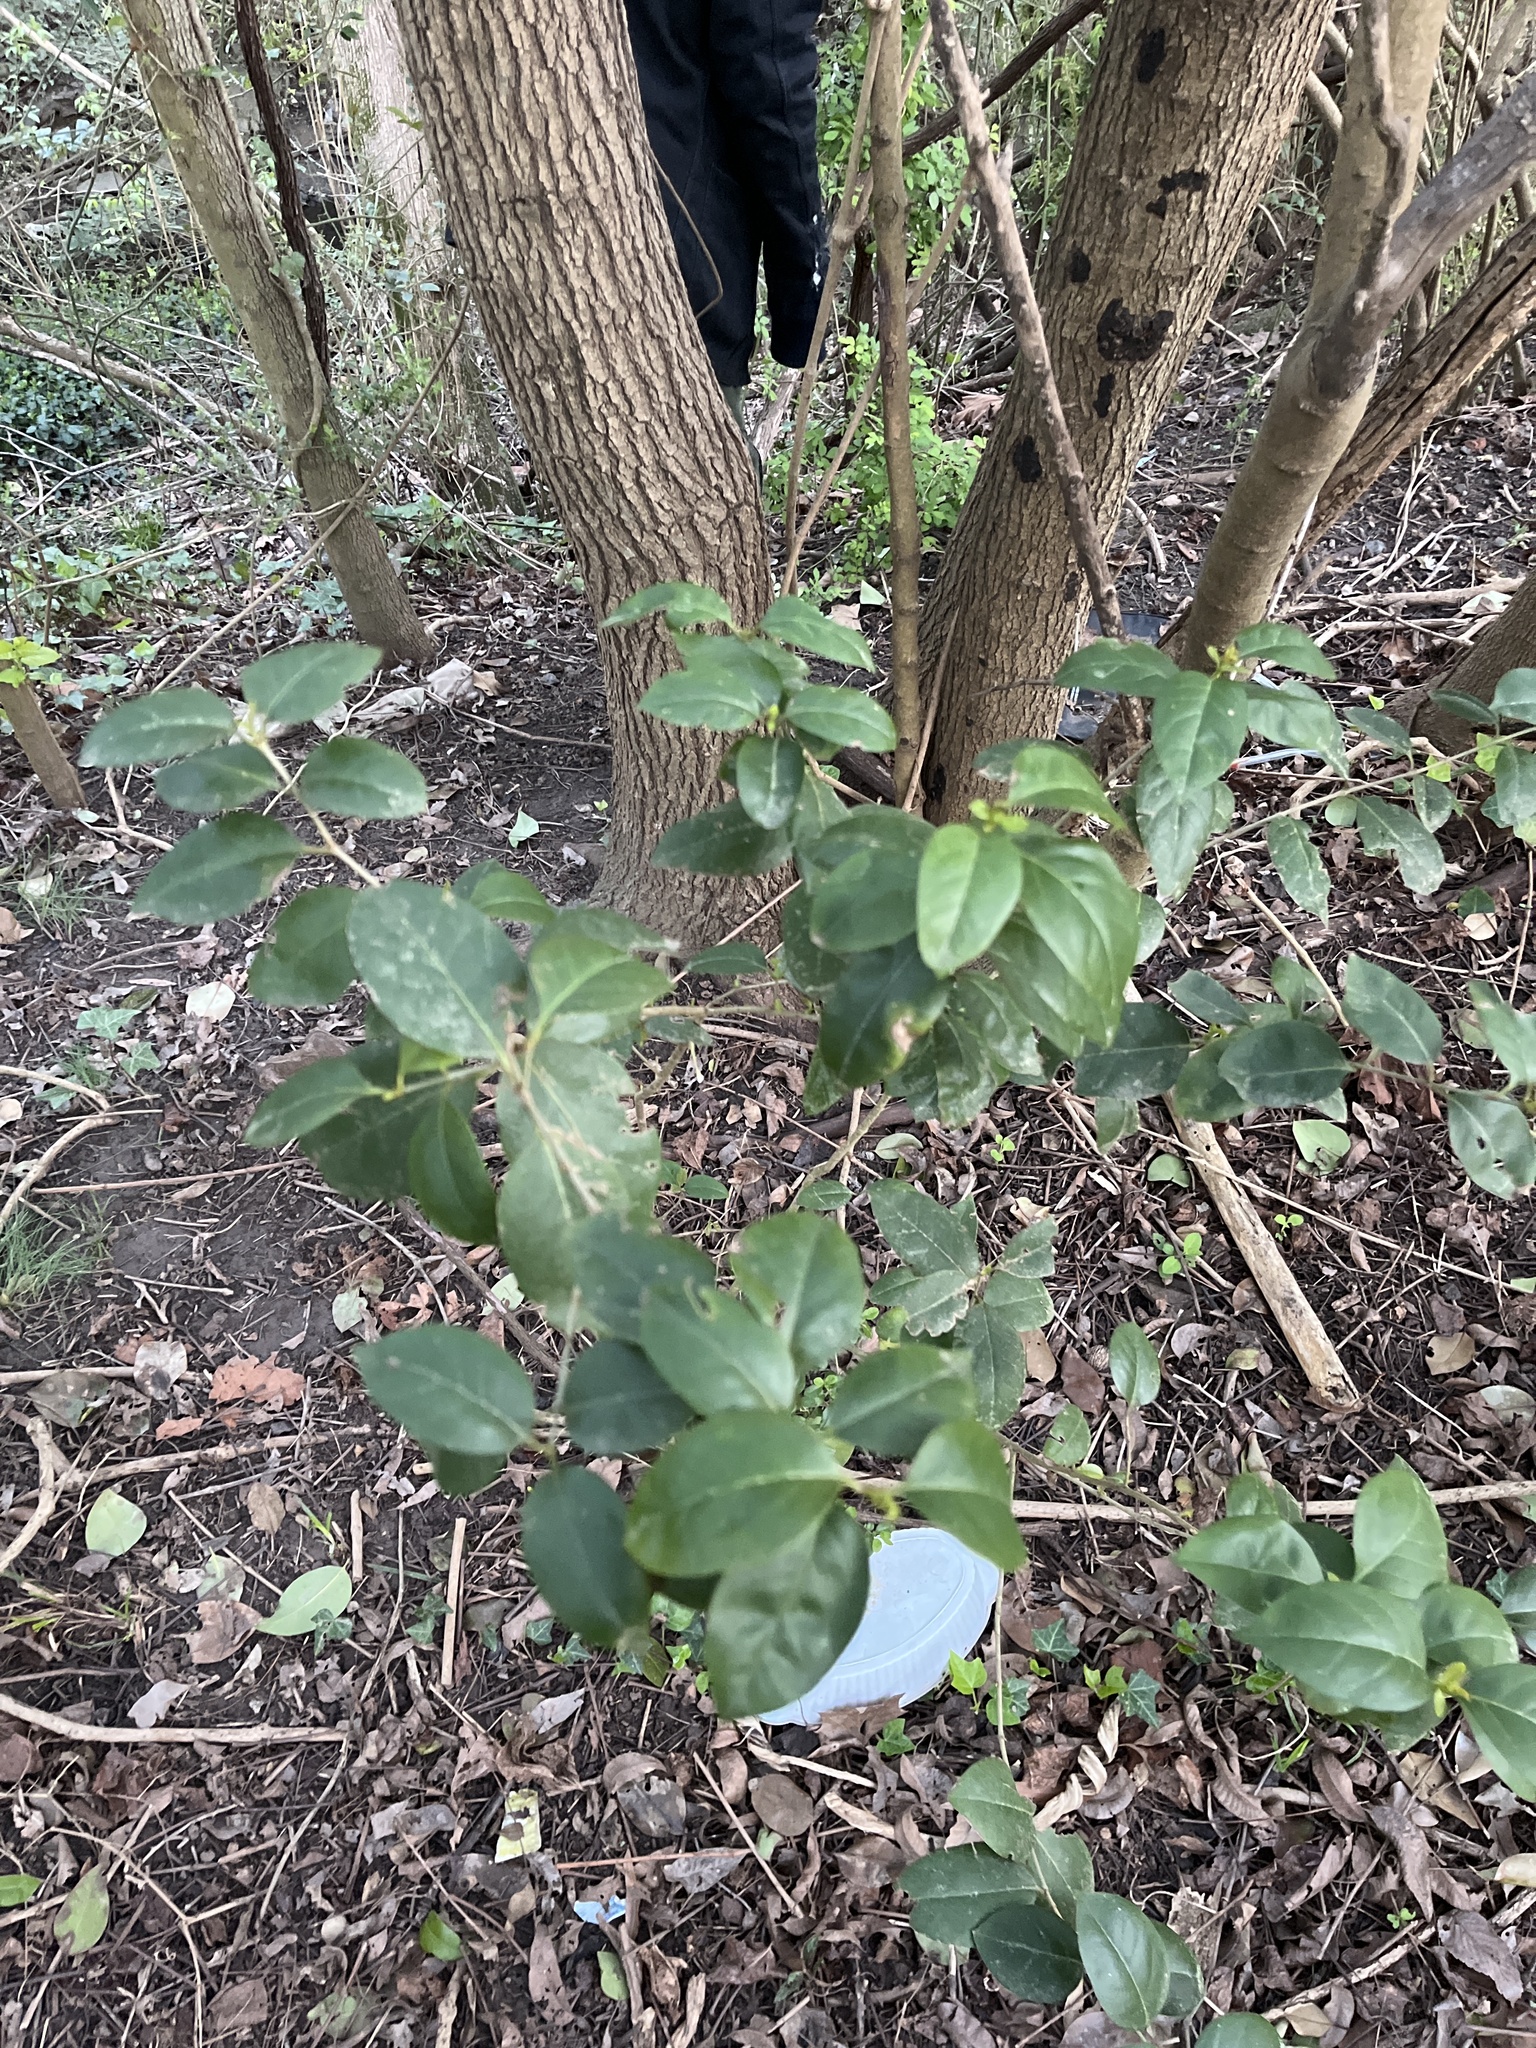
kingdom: Plantae
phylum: Tracheophyta
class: Magnoliopsida
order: Lamiales
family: Oleaceae
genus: Ligustrum
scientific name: Ligustrum lucidum
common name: Glossy privet
